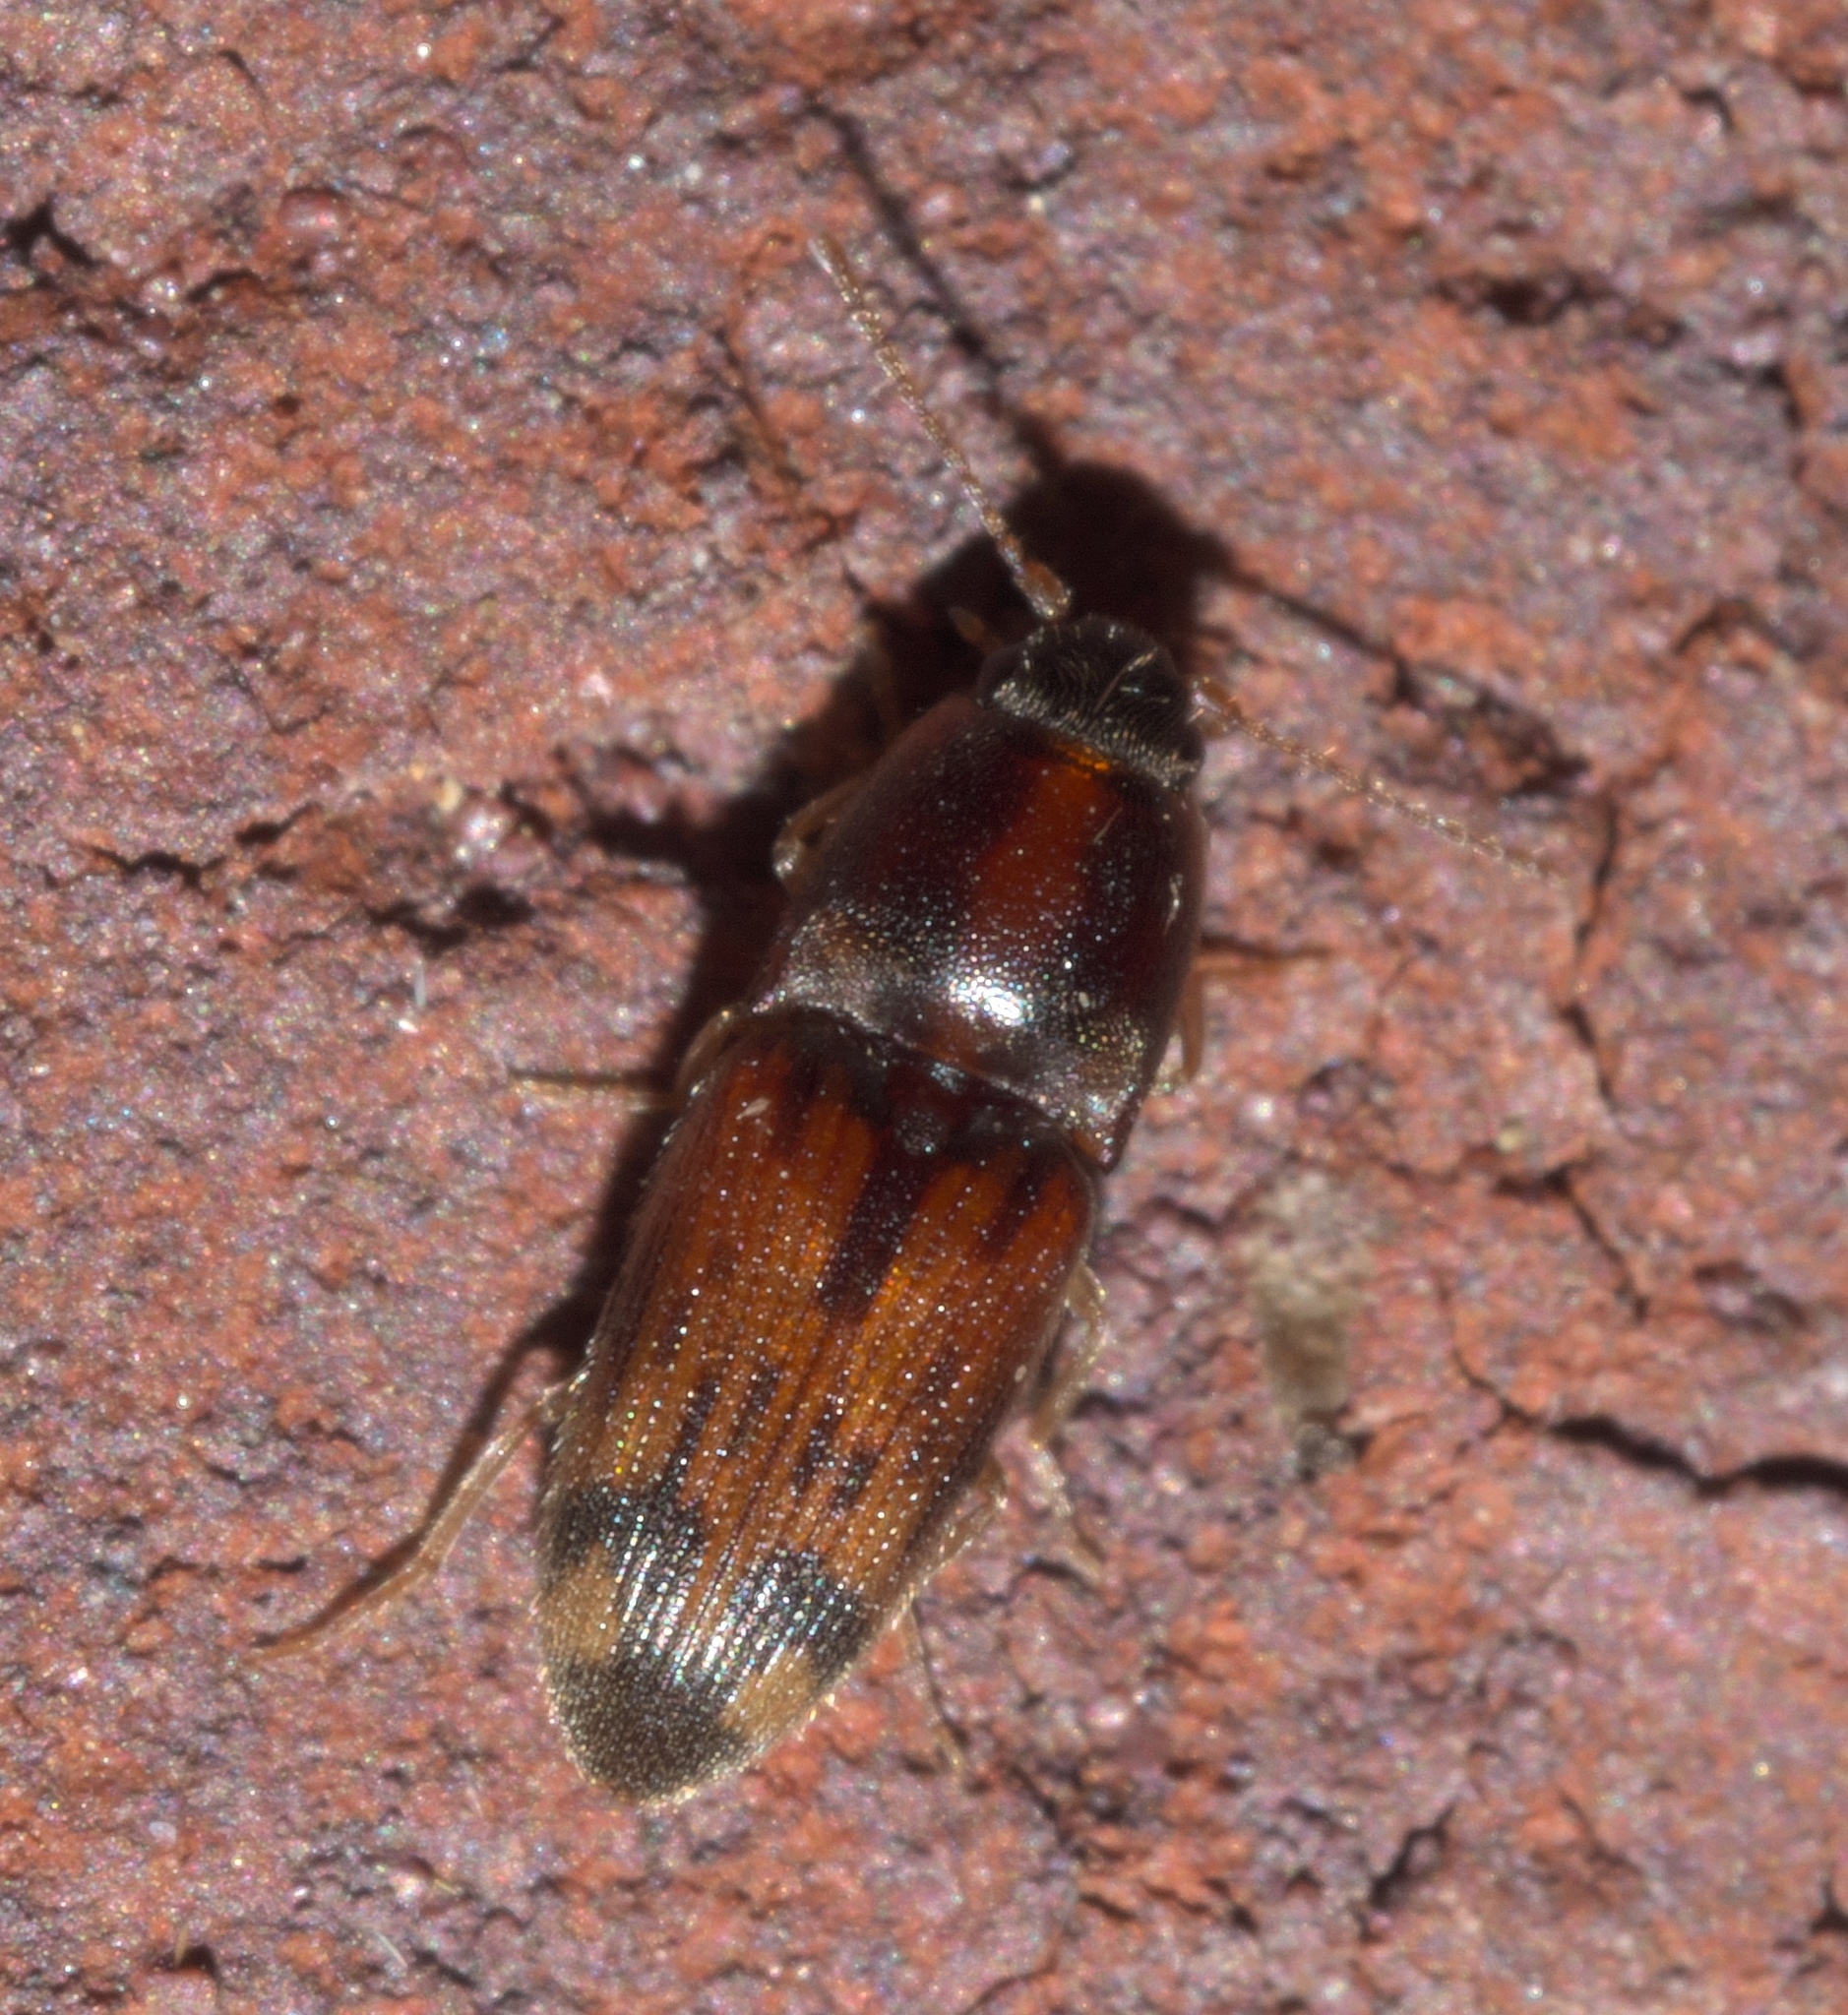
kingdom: Animalia
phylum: Arthropoda
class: Insecta
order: Coleoptera
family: Elateridae
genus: Monocrepidius
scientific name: Monocrepidius bellus
